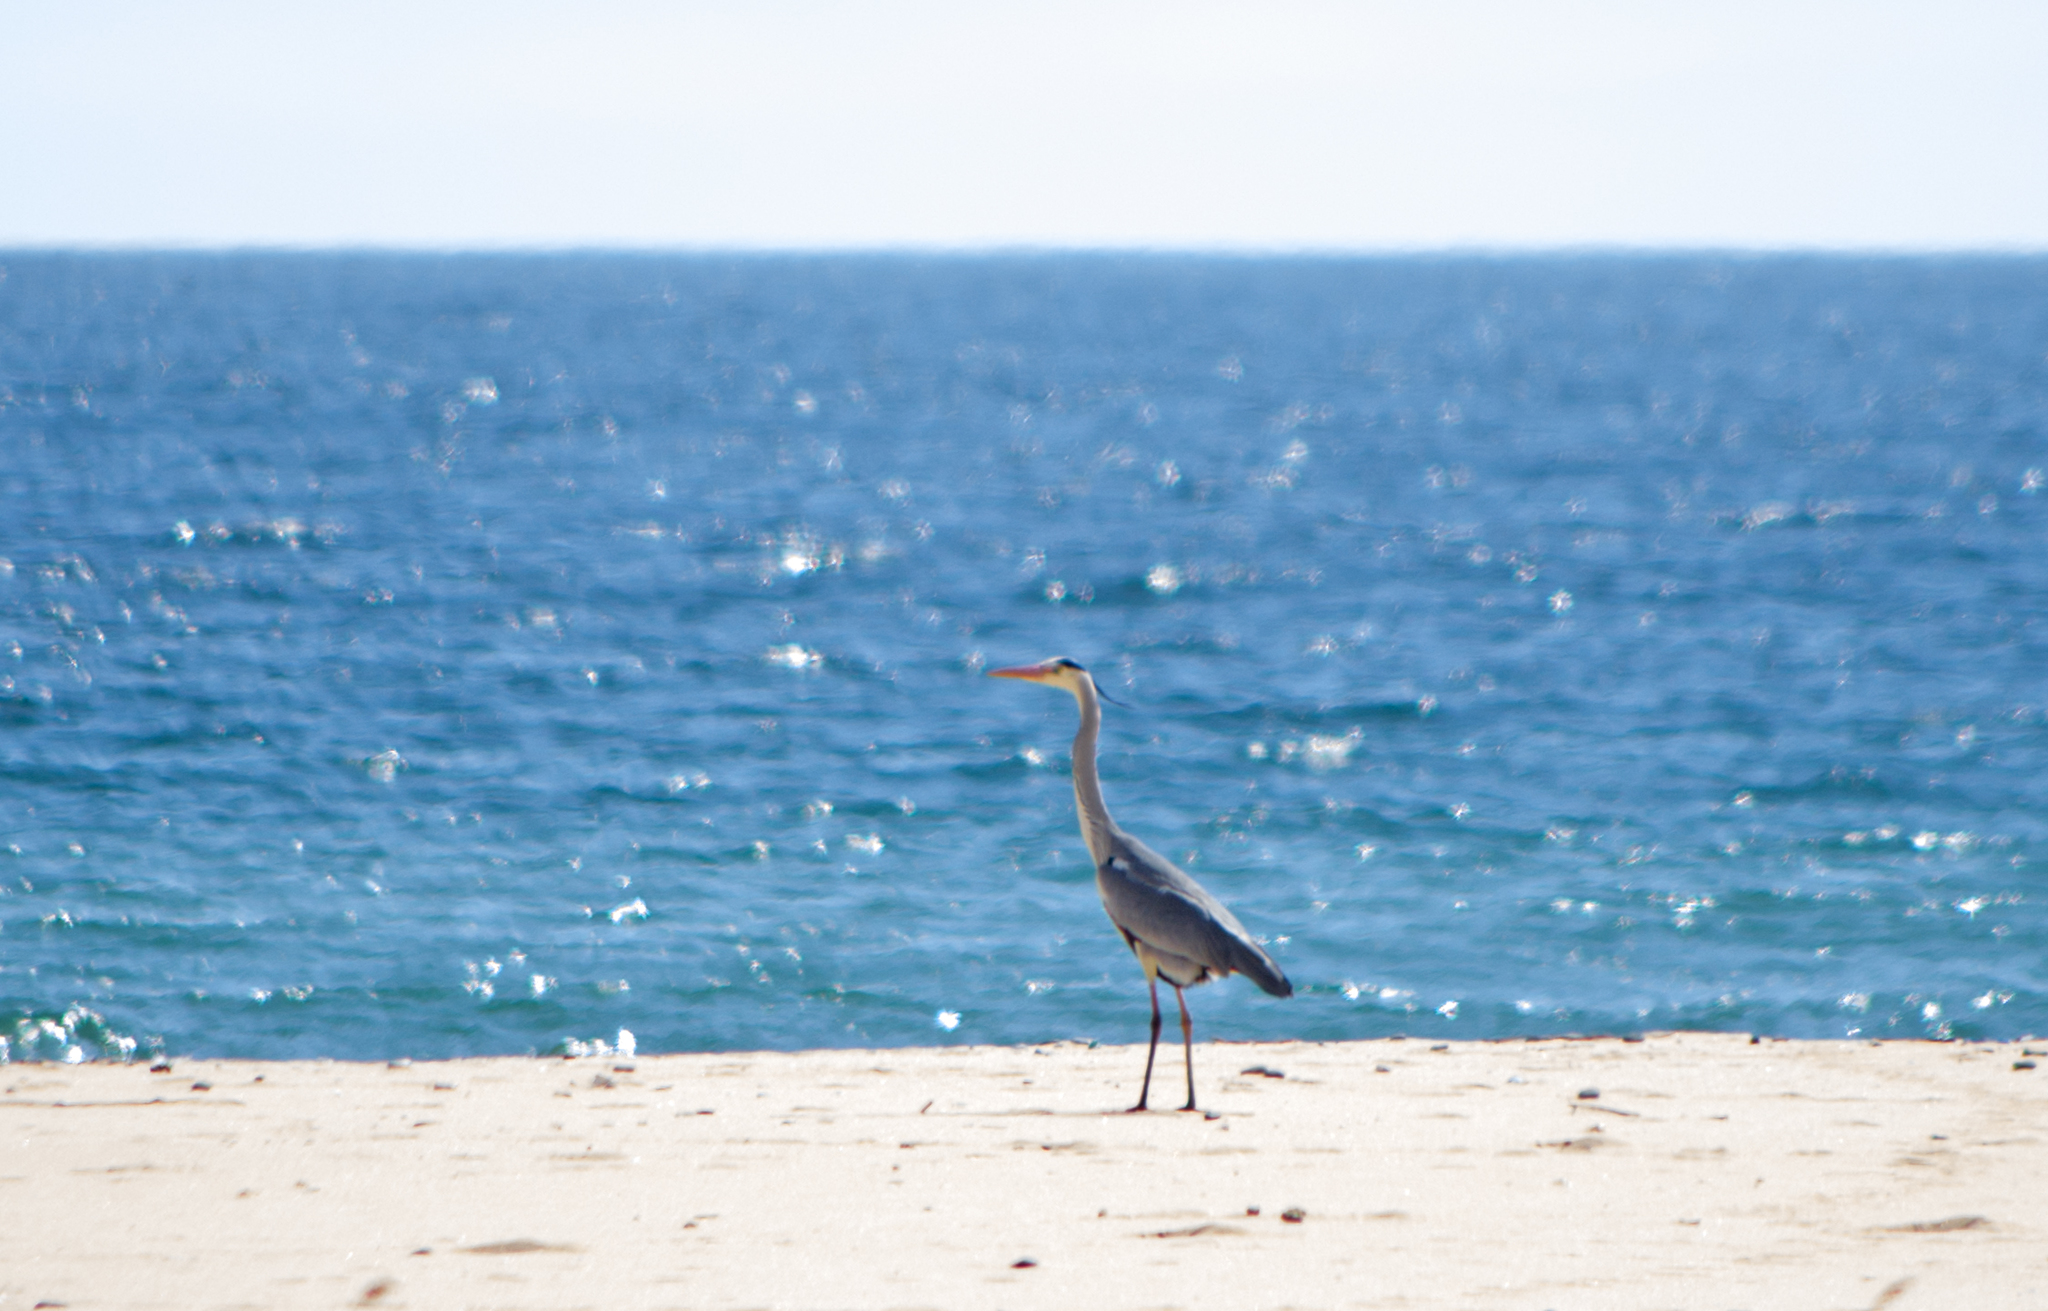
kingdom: Animalia
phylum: Chordata
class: Aves
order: Pelecaniformes
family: Ardeidae
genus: Ardea
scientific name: Ardea cinerea
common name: Grey heron
